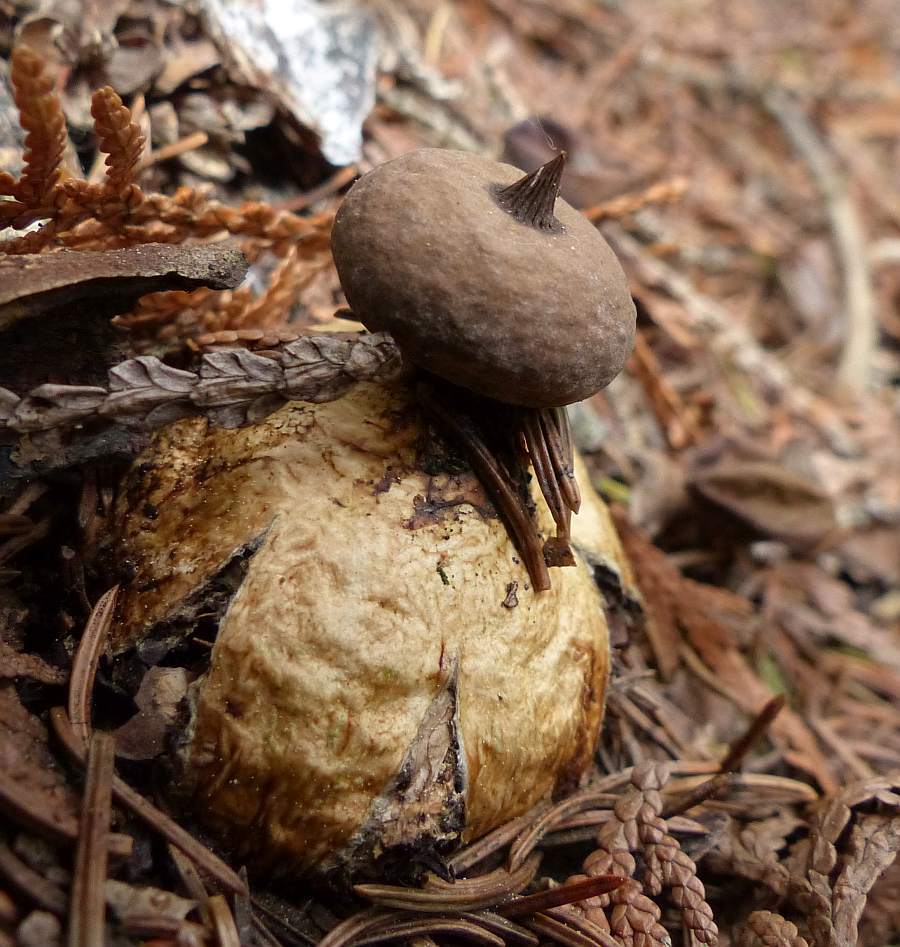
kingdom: Fungi
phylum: Basidiomycota
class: Agaricomycetes
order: Geastrales
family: Geastraceae
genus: Geastrum
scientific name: Geastrum pectinatum
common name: Beaked earthstar
